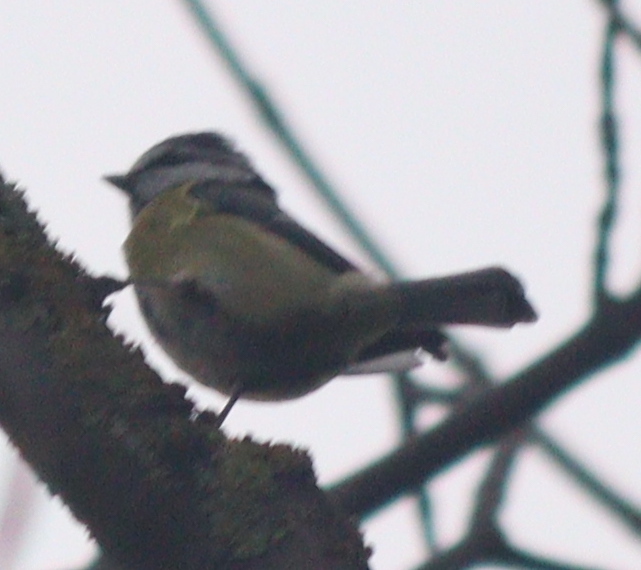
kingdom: Animalia
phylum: Chordata
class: Aves
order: Passeriformes
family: Paridae
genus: Cyanistes
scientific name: Cyanistes caeruleus
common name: Eurasian blue tit
